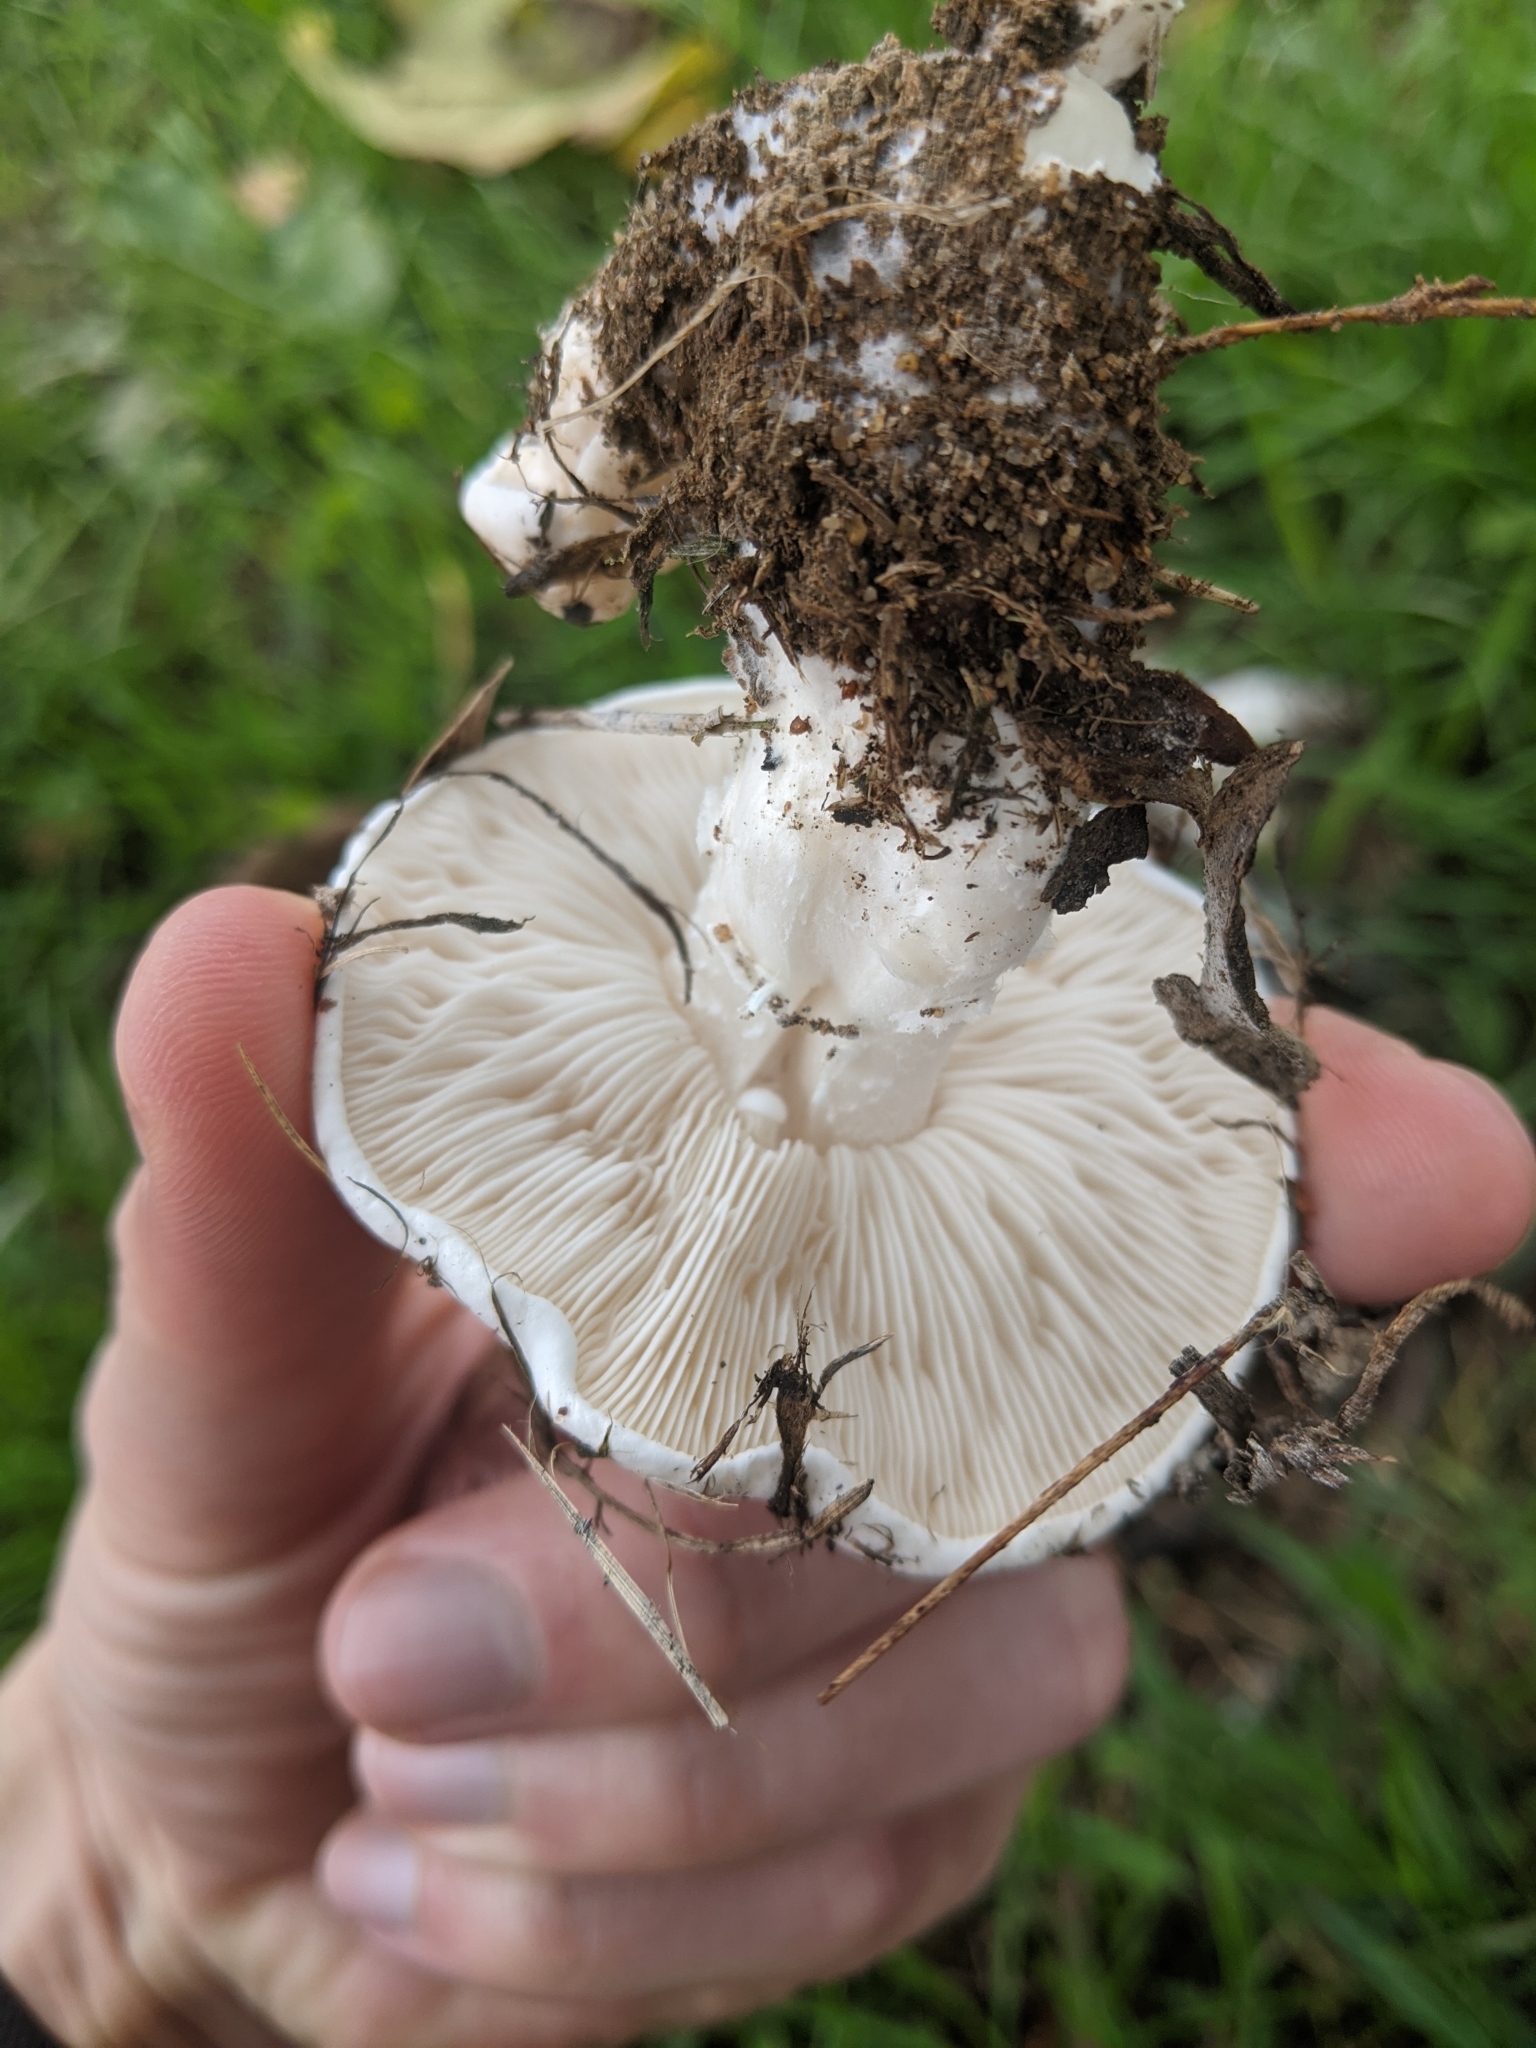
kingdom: Fungi
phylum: Basidiomycota
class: Agaricomycetes
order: Agaricales
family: Lyophyllaceae
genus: Calocybe
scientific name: Calocybe gambosa
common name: St. george's mushroom
